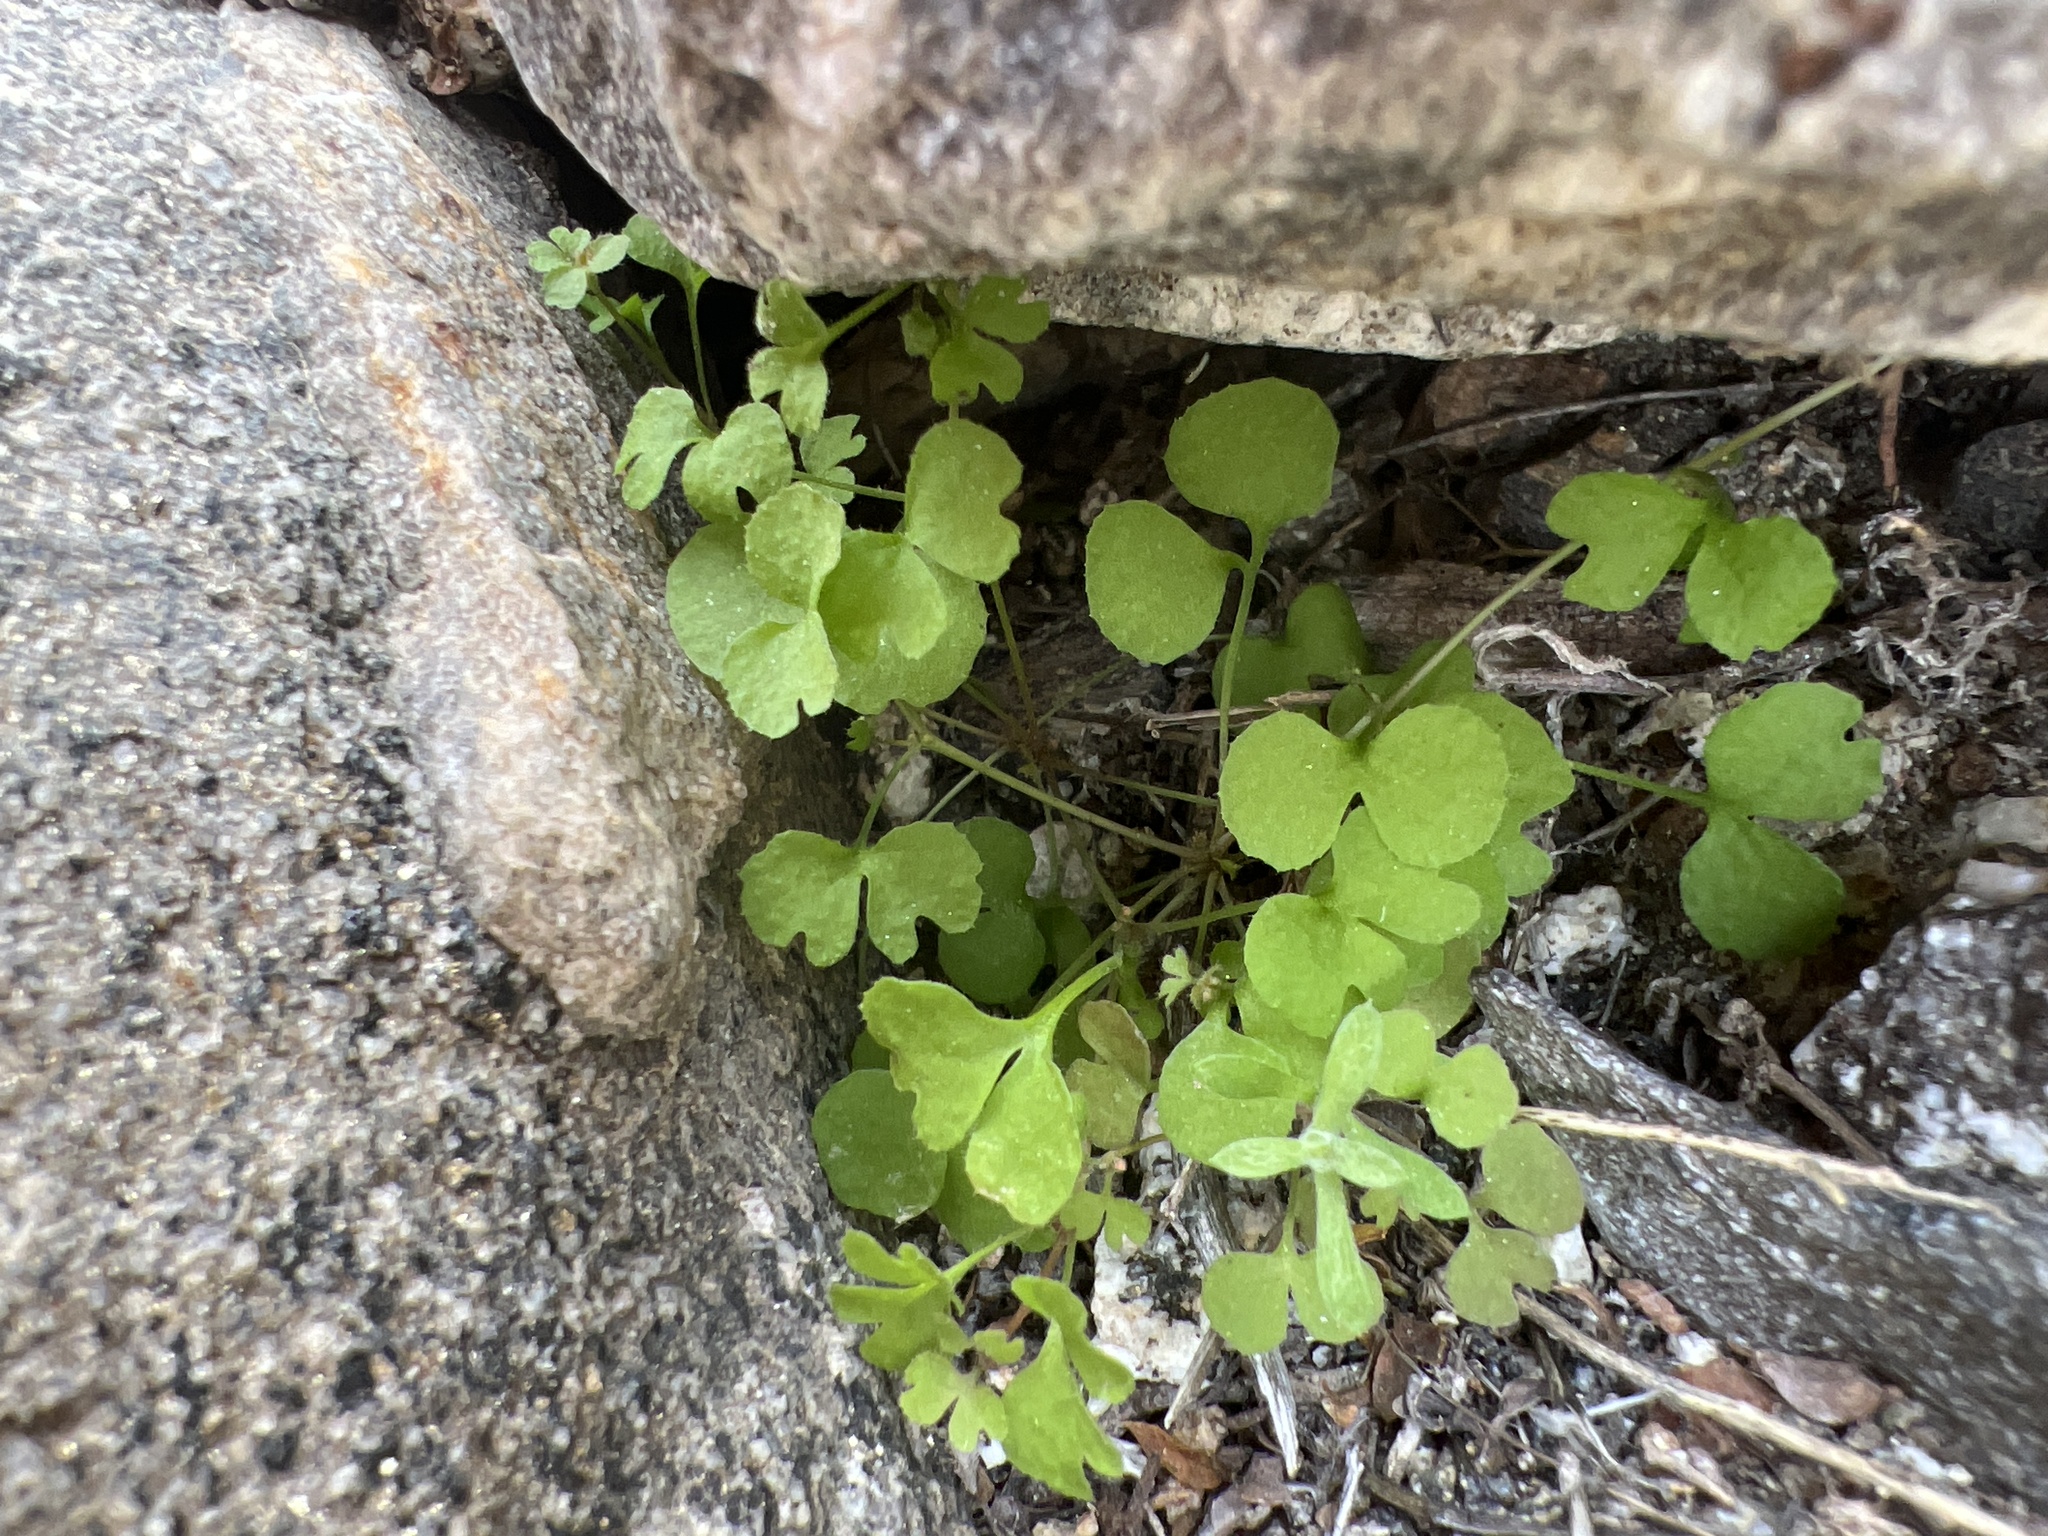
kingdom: Plantae
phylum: Tracheophyta
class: Magnoliopsida
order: Caryophyllales
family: Polygonaceae
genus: Pterostegia
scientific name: Pterostegia drymarioides
